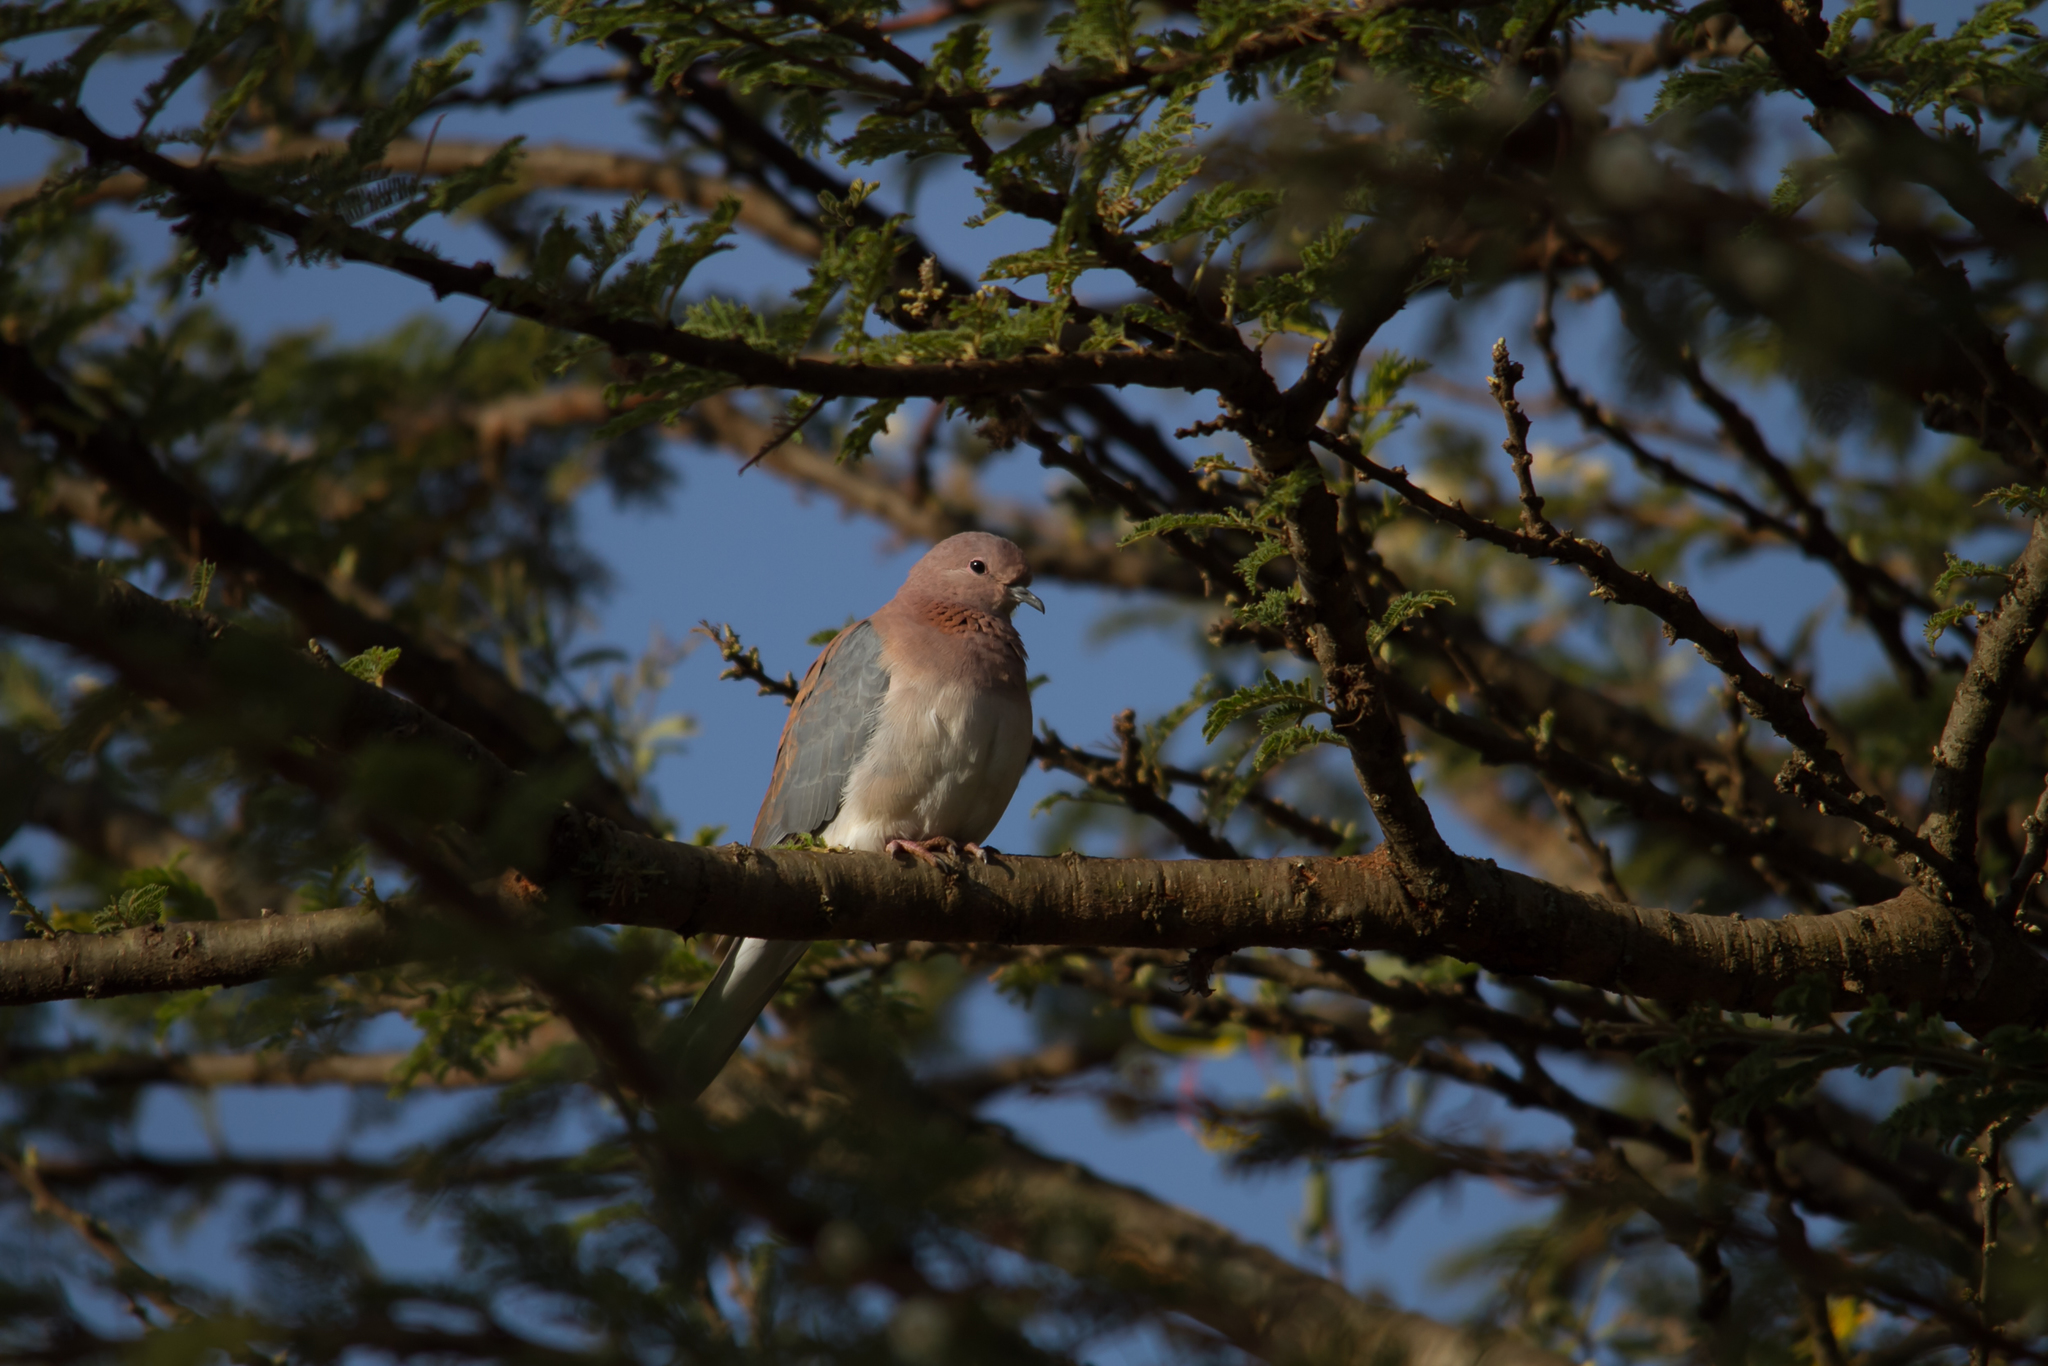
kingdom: Animalia
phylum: Chordata
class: Aves
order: Columbiformes
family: Columbidae
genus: Spilopelia
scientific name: Spilopelia senegalensis
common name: Laughing dove
